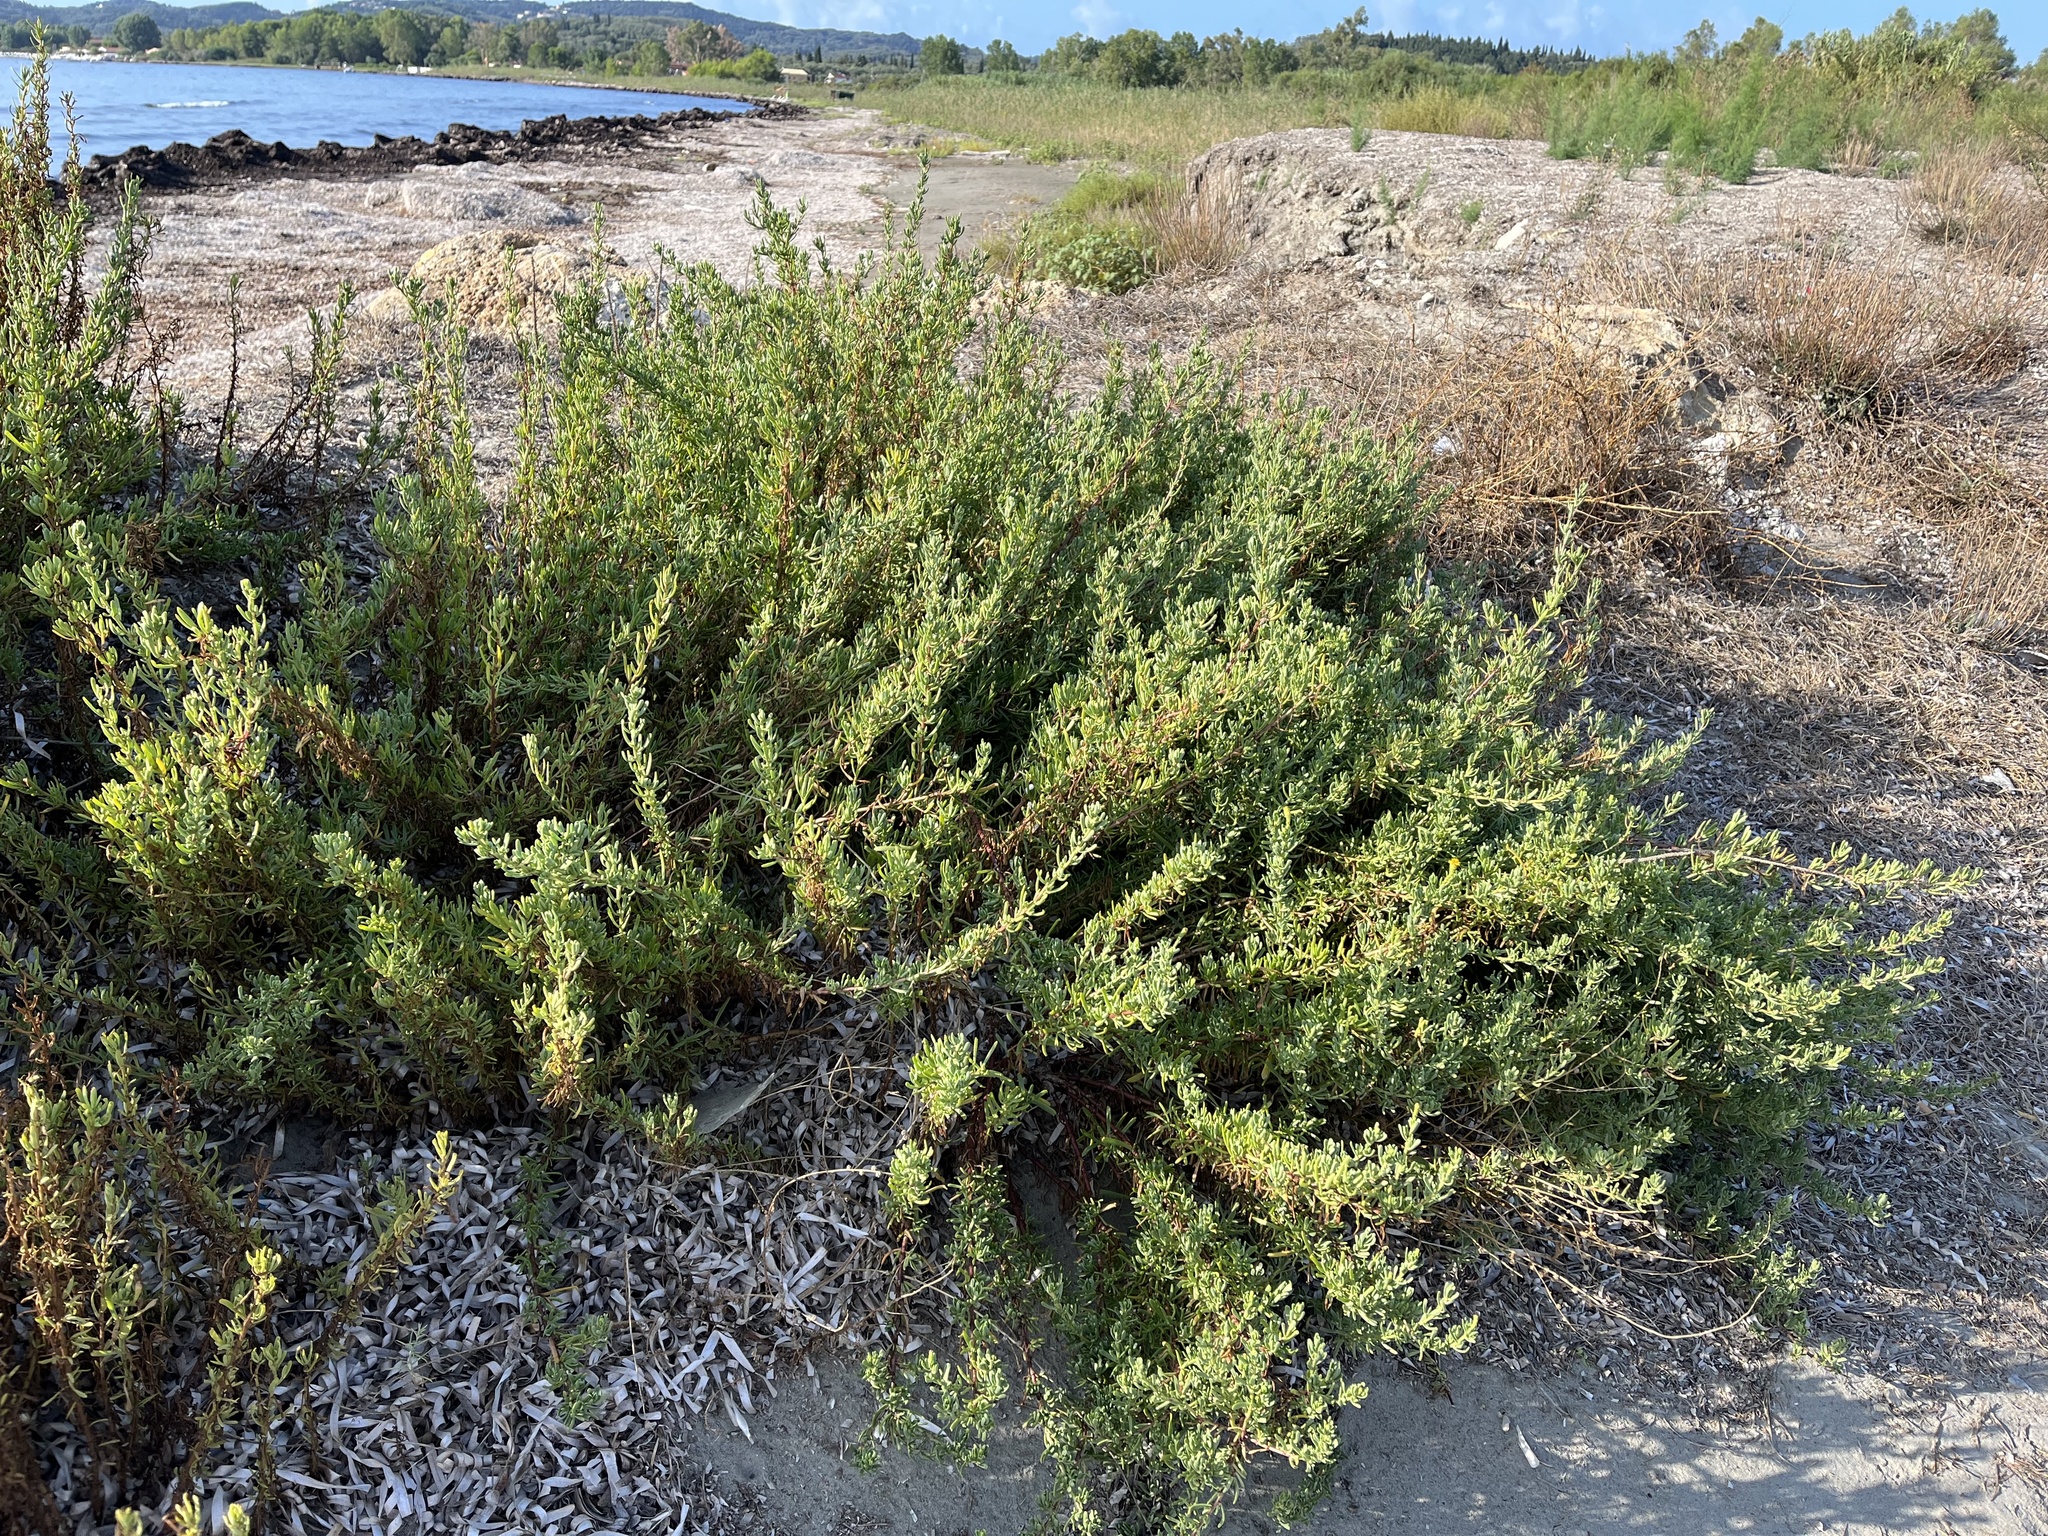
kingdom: Plantae
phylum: Tracheophyta
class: Magnoliopsida
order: Asterales
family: Asteraceae
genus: Limbarda
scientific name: Limbarda crithmoides
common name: Golden samphire
